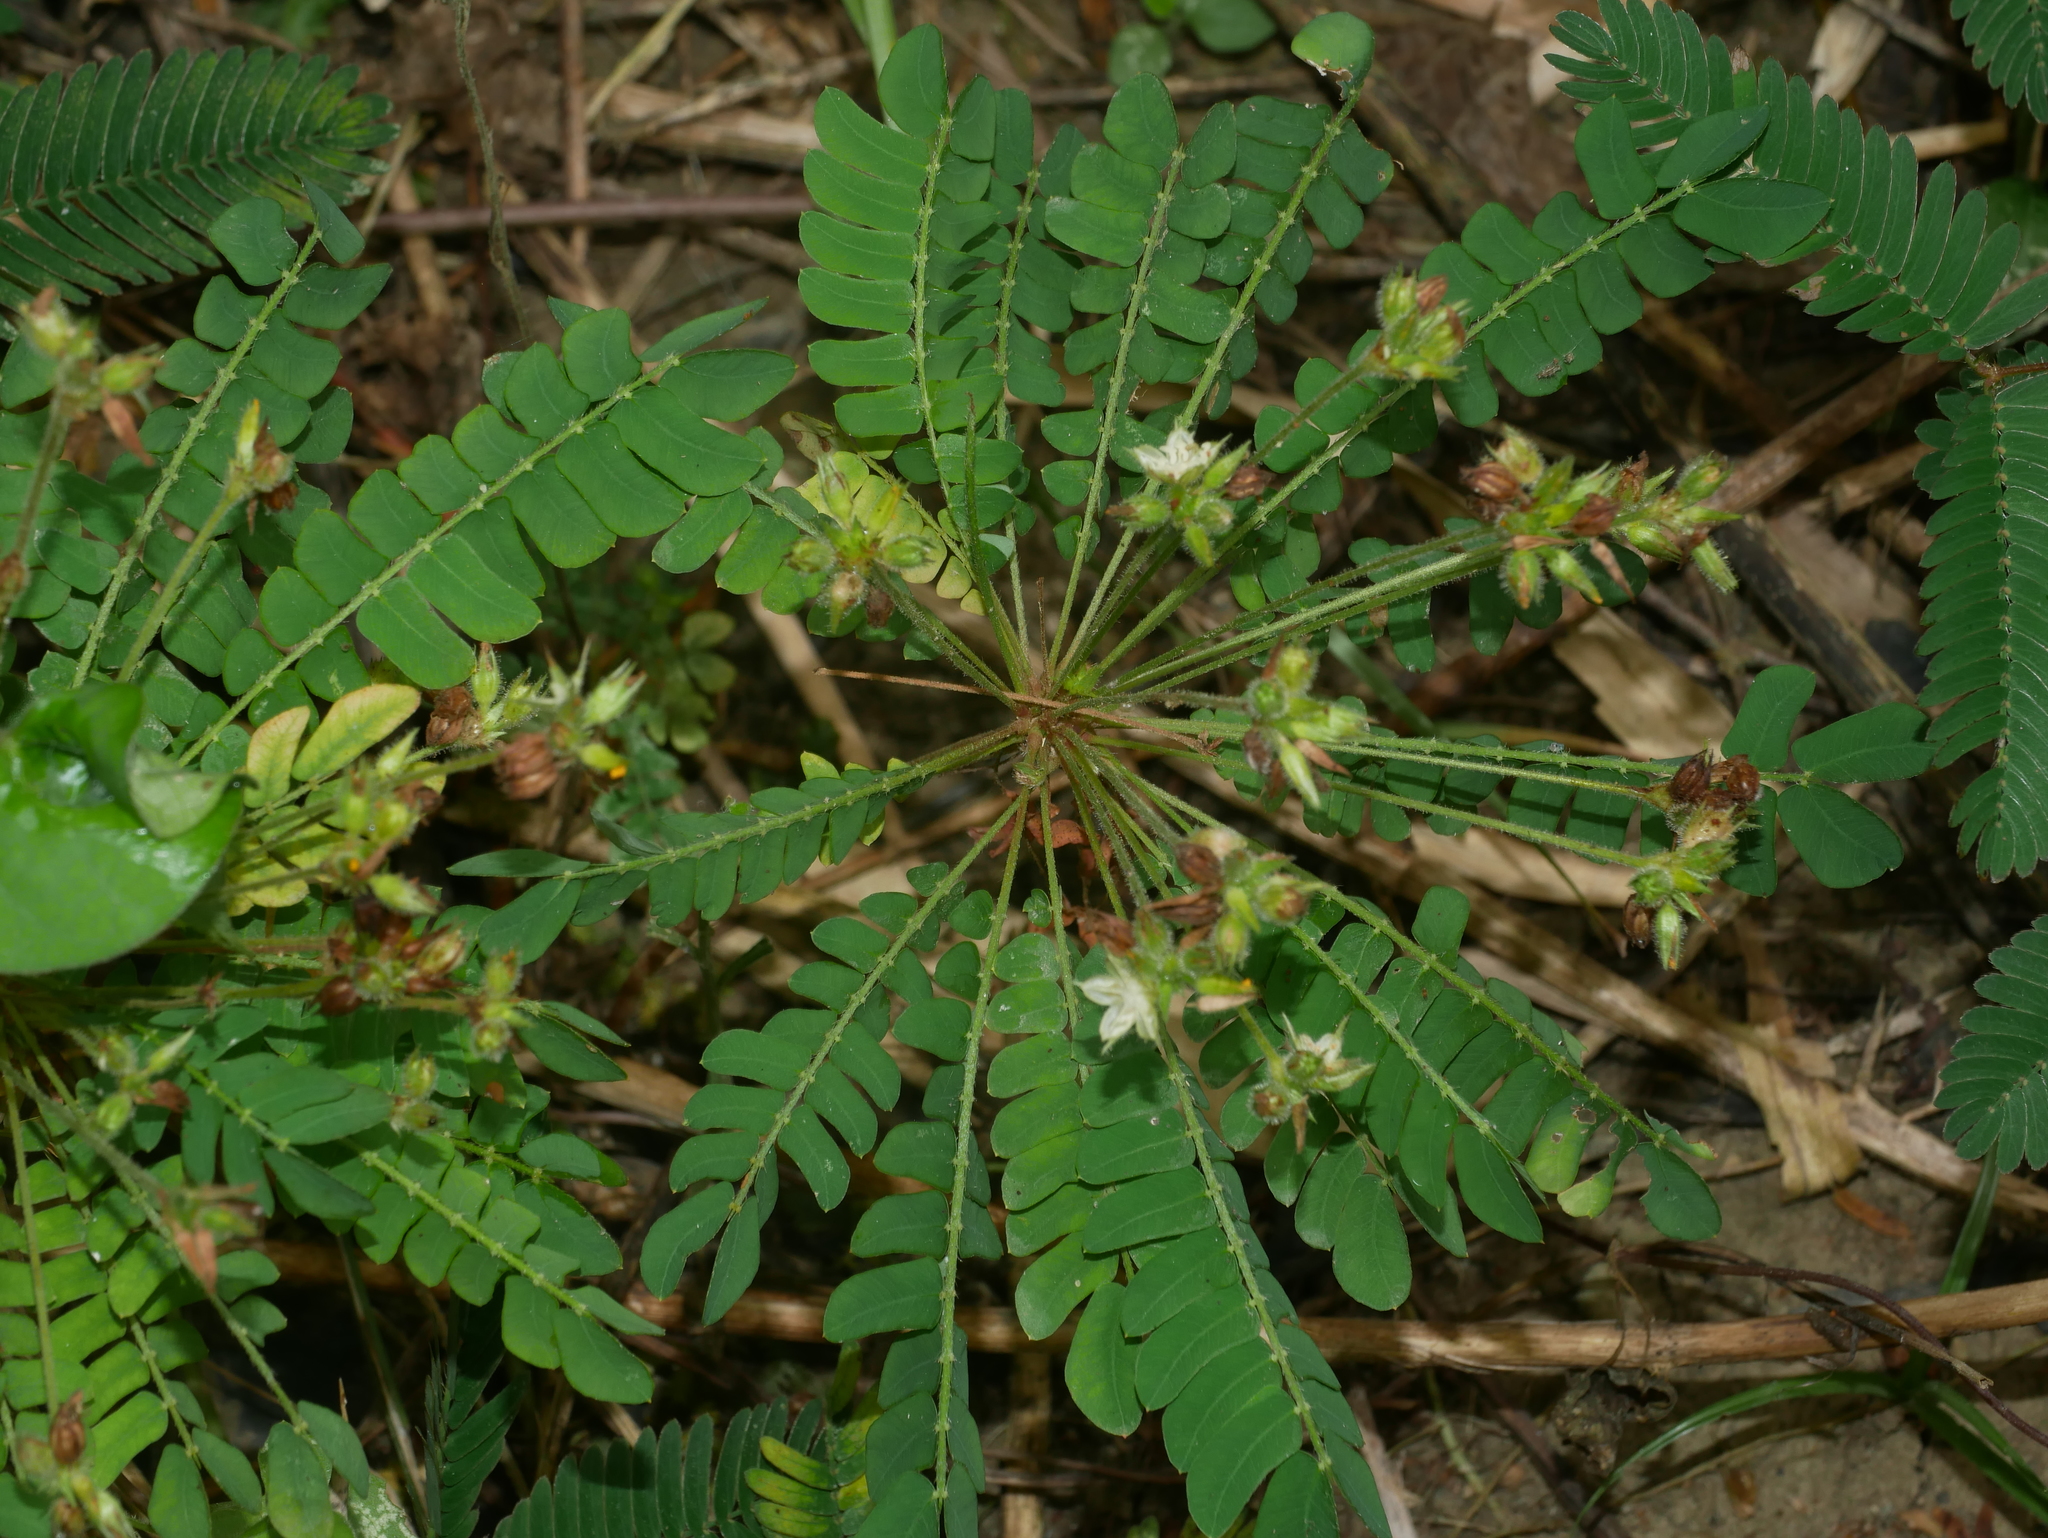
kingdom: Plantae
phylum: Tracheophyta
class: Magnoliopsida
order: Oxalidales
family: Oxalidaceae
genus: Biophytum
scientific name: Biophytum sensitivum
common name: Lifeplant
